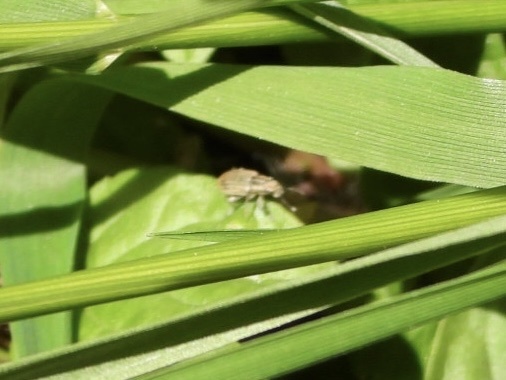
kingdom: Animalia
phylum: Arthropoda
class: Insecta
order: Coleoptera
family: Curculionidae
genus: Sitona
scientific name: Sitona hispidulus
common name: Clover weevil
